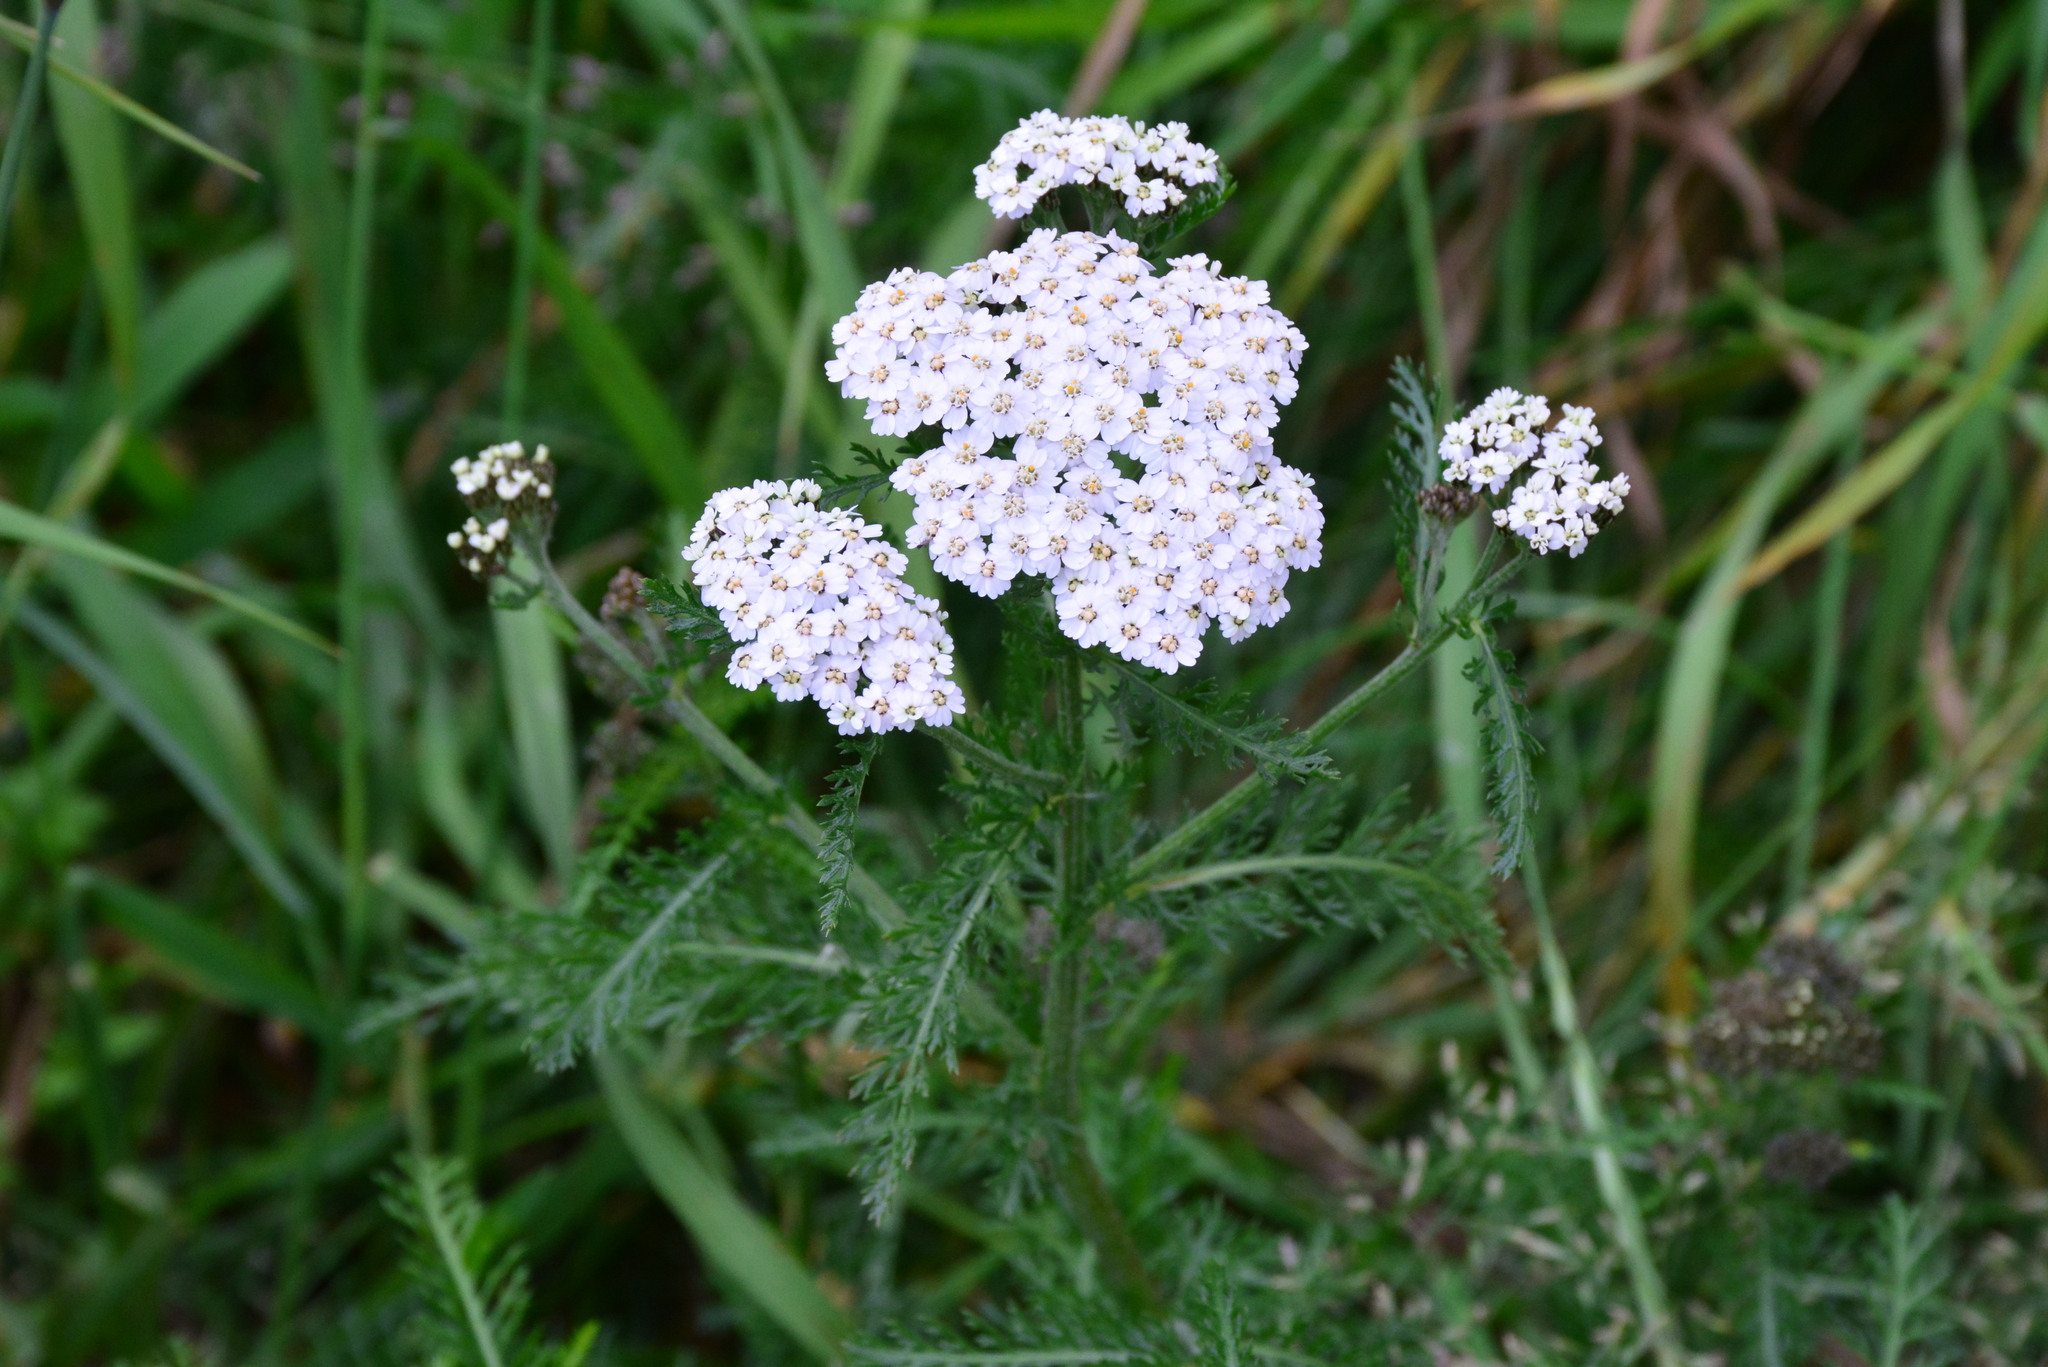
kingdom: Plantae
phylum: Tracheophyta
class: Magnoliopsida
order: Asterales
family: Asteraceae
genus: Achillea
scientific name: Achillea millefolium
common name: Yarrow
